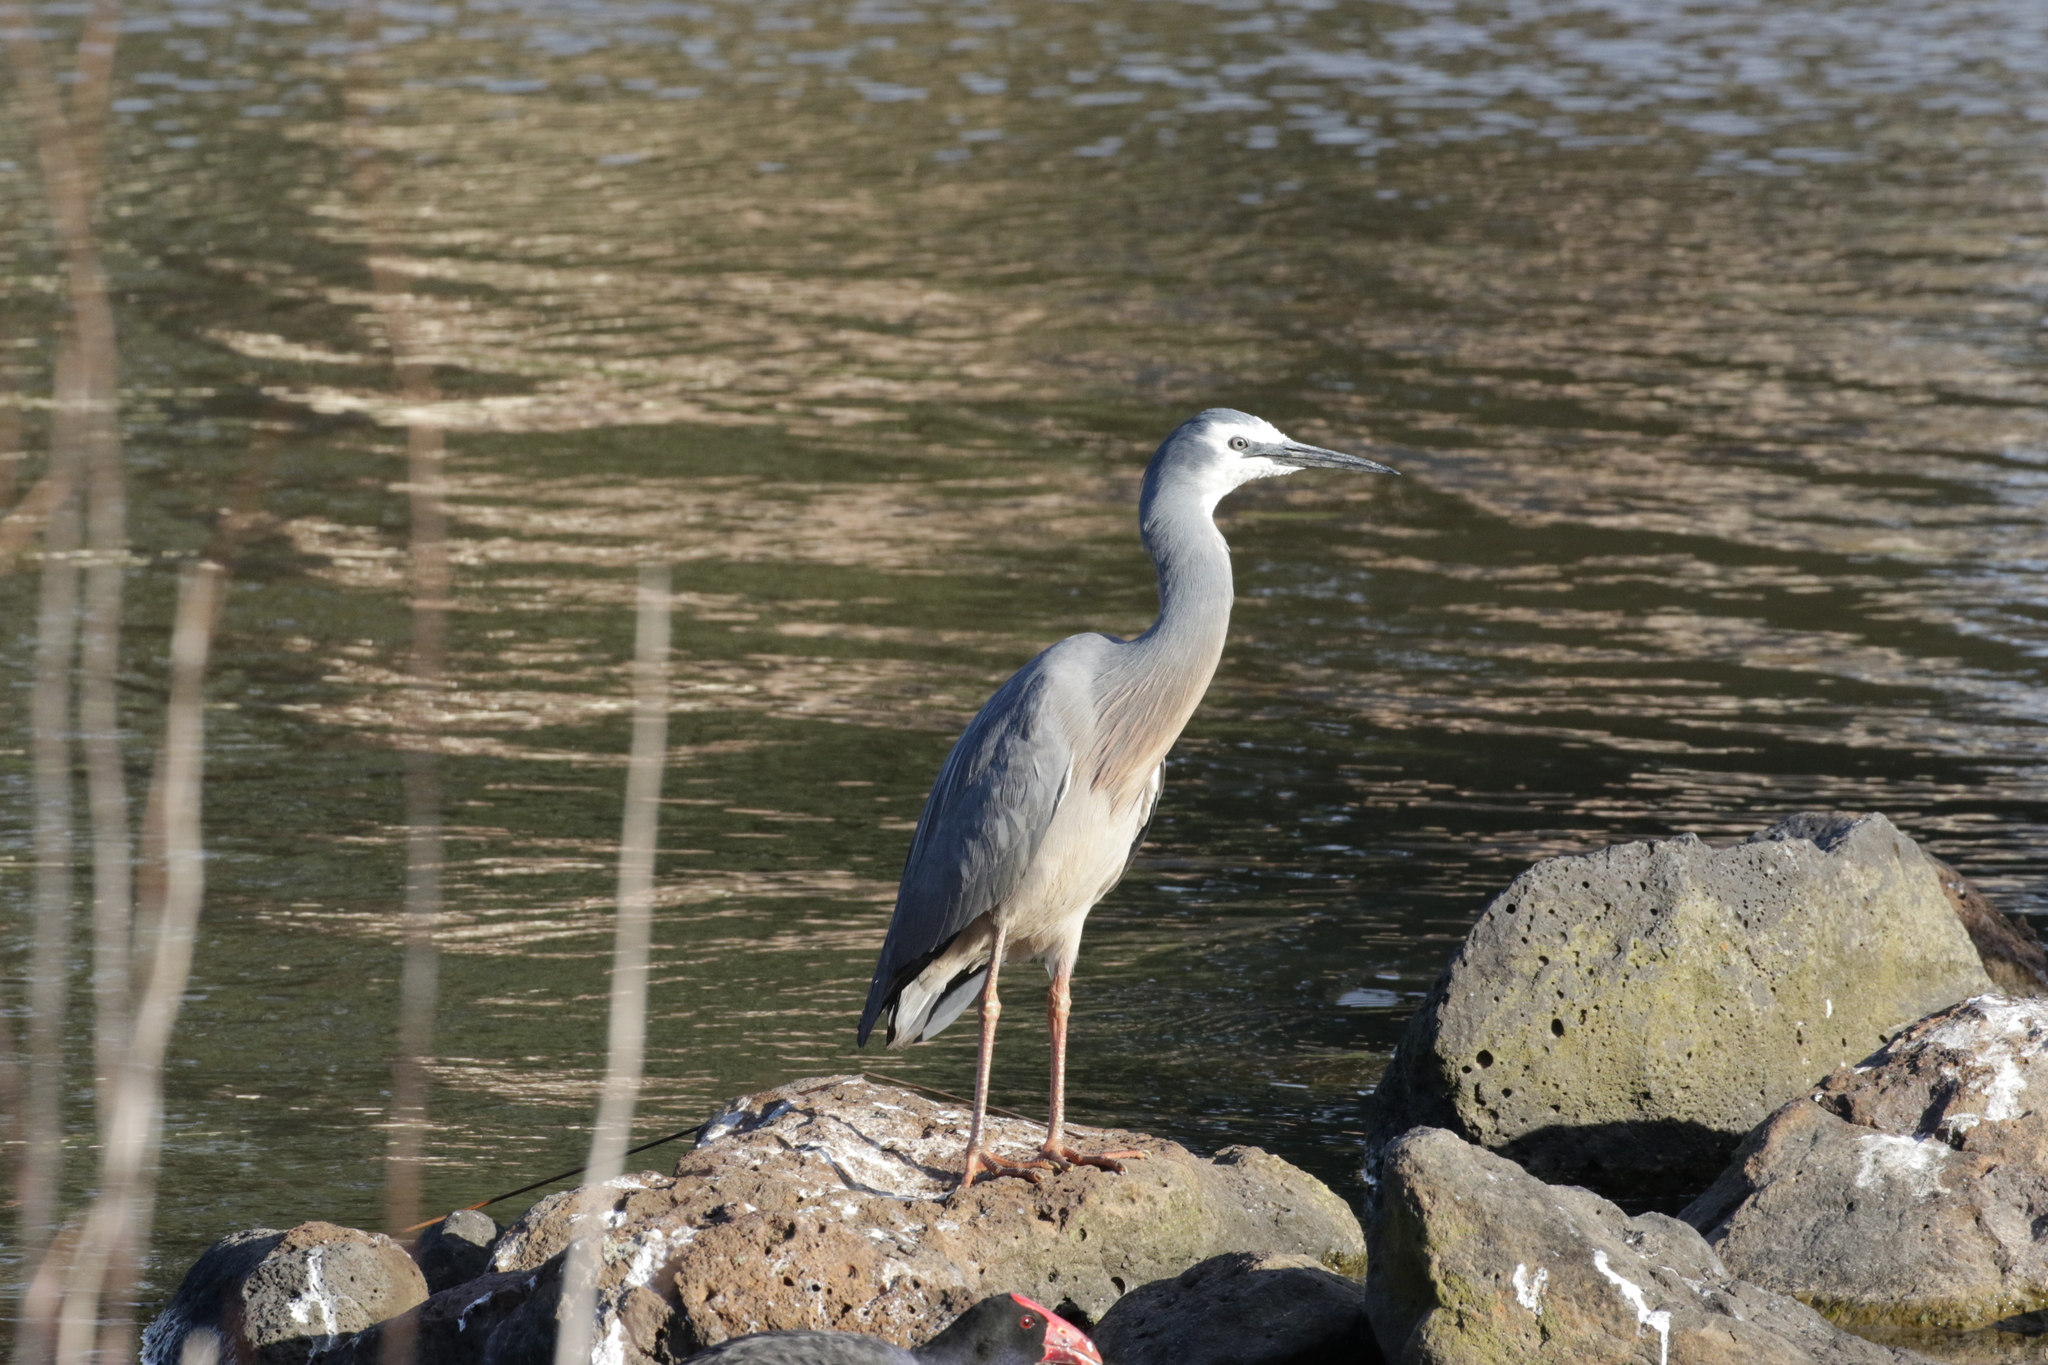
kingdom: Animalia
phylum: Chordata
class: Aves
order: Pelecaniformes
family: Ardeidae
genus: Egretta
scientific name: Egretta novaehollandiae
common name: White-faced heron
